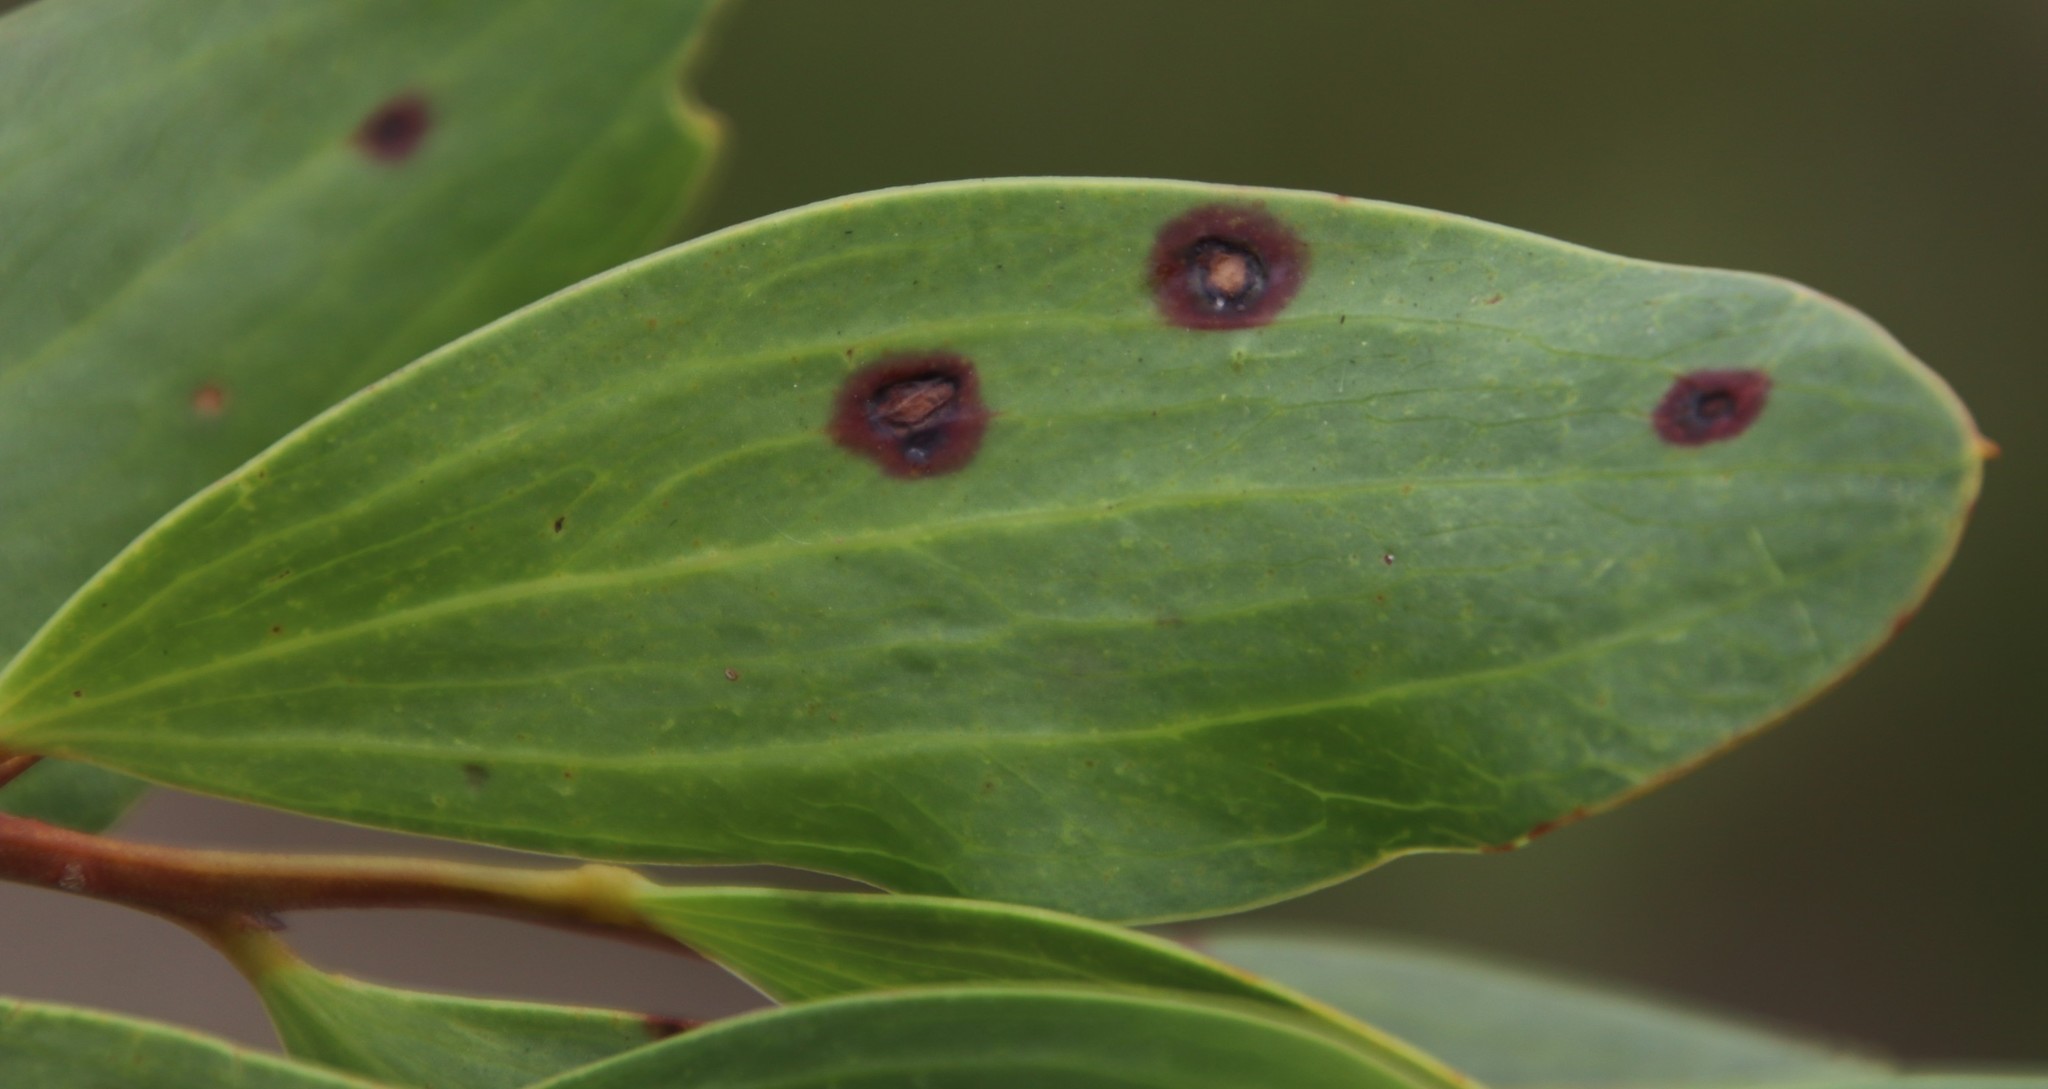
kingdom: Plantae
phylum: Tracheophyta
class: Magnoliopsida
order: Fabales
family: Fabaceae
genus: Acacia
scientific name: Acacia cyclops
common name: Coastal wattle
